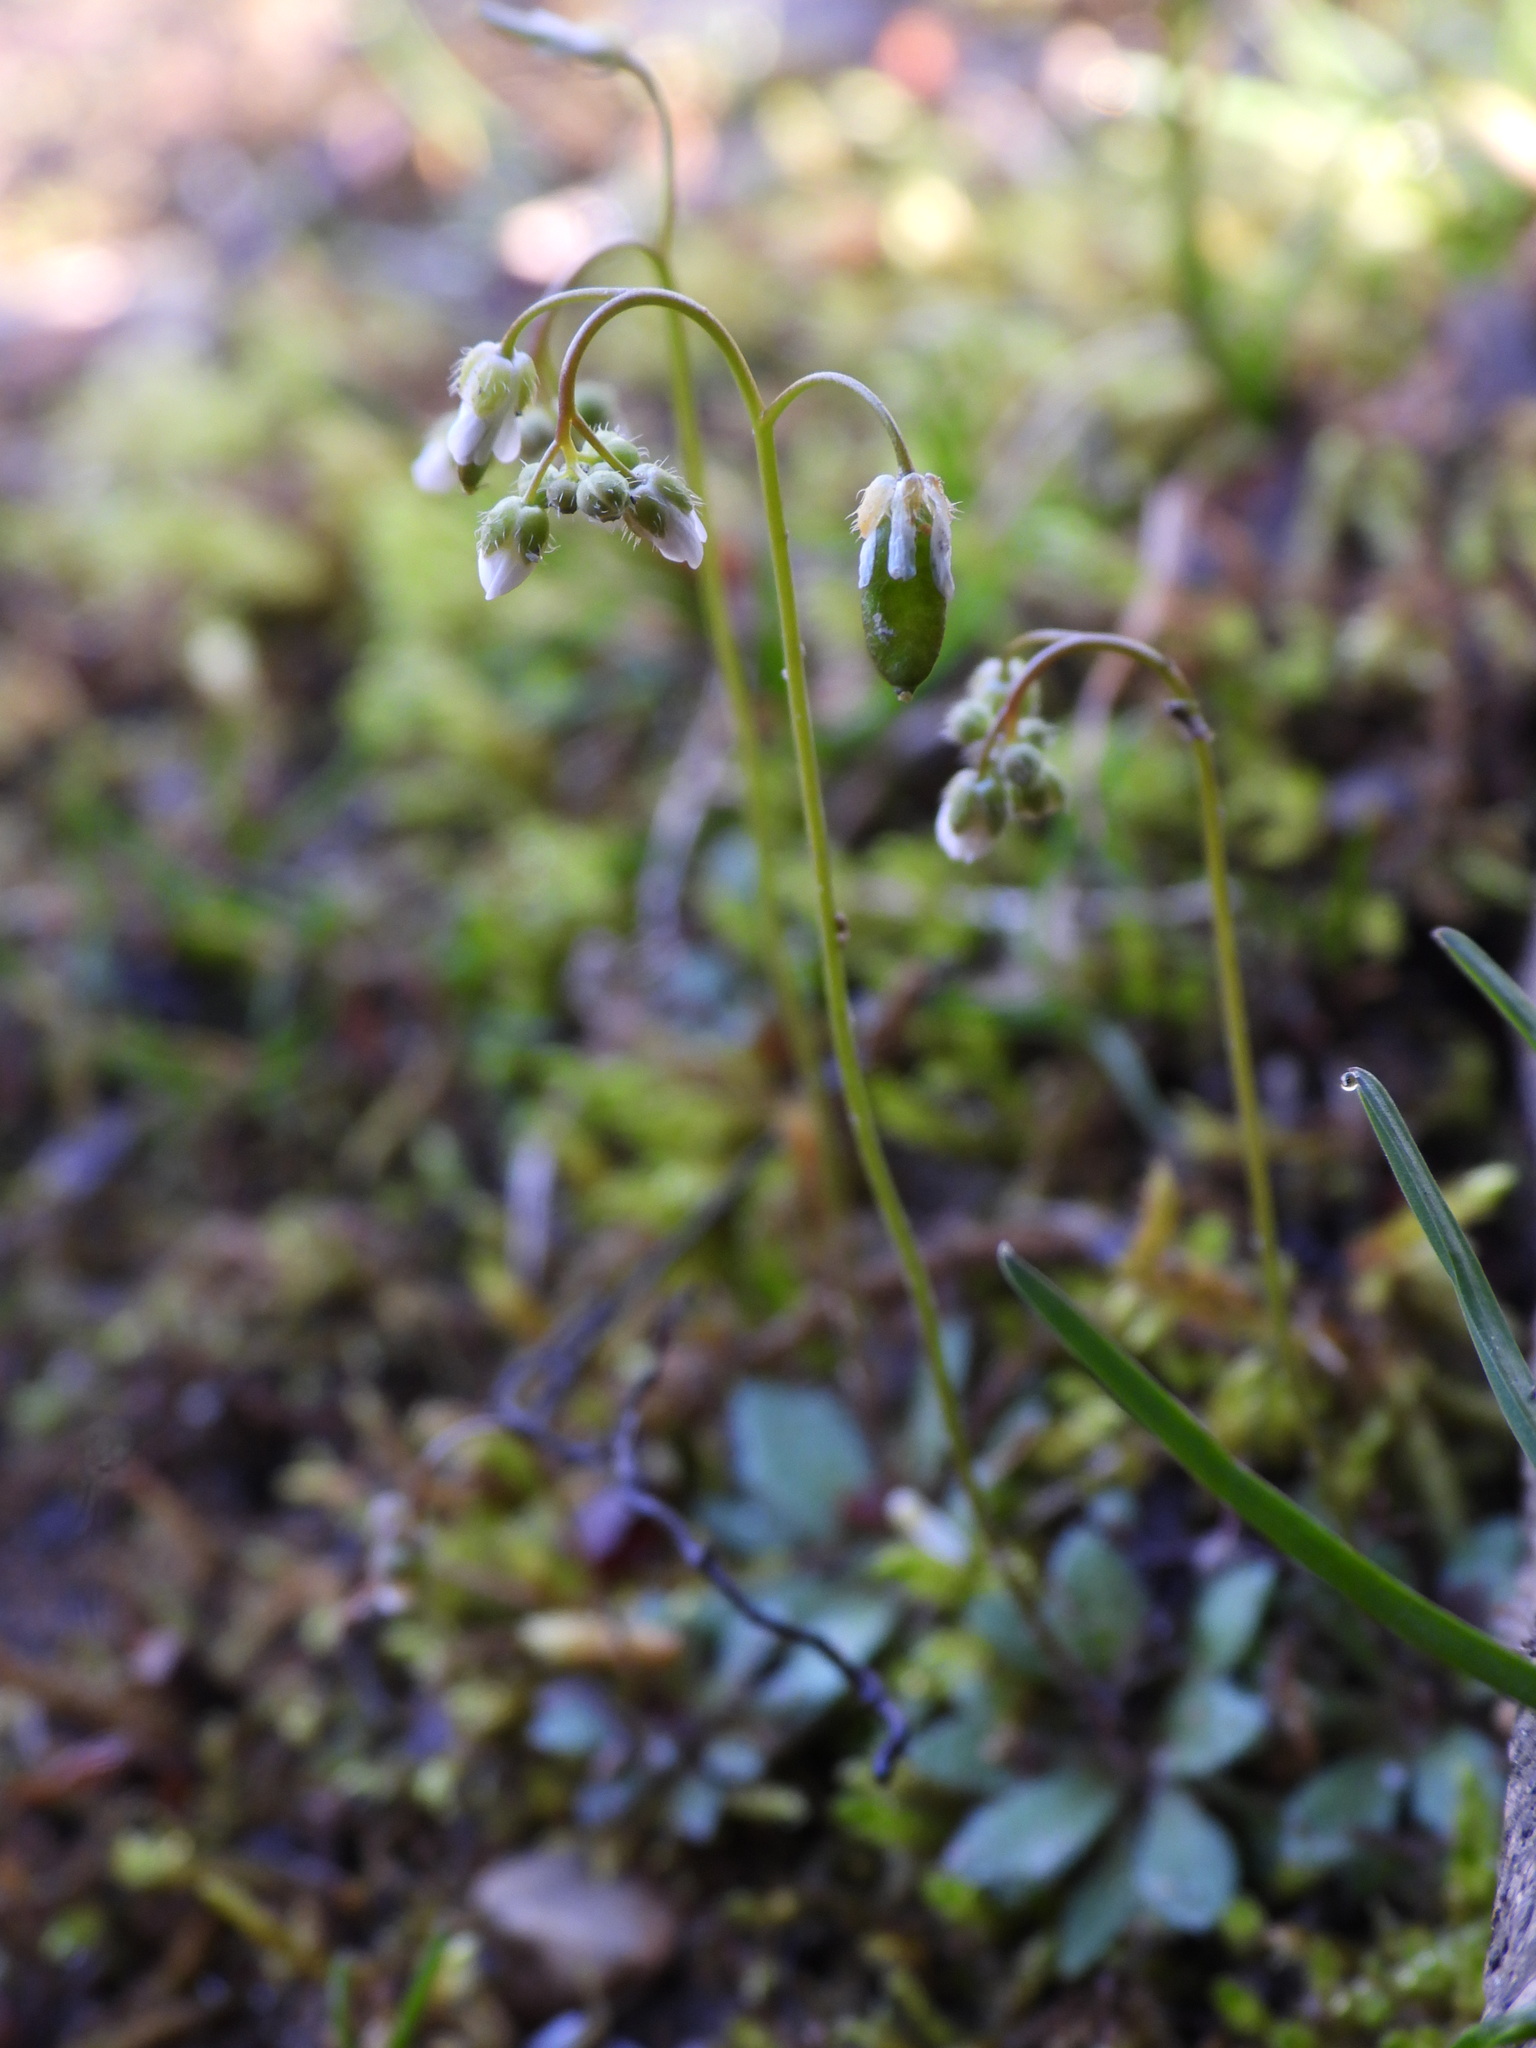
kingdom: Plantae
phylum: Tracheophyta
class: Magnoliopsida
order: Brassicales
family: Brassicaceae
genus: Draba
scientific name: Draba verna
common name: Spring draba
